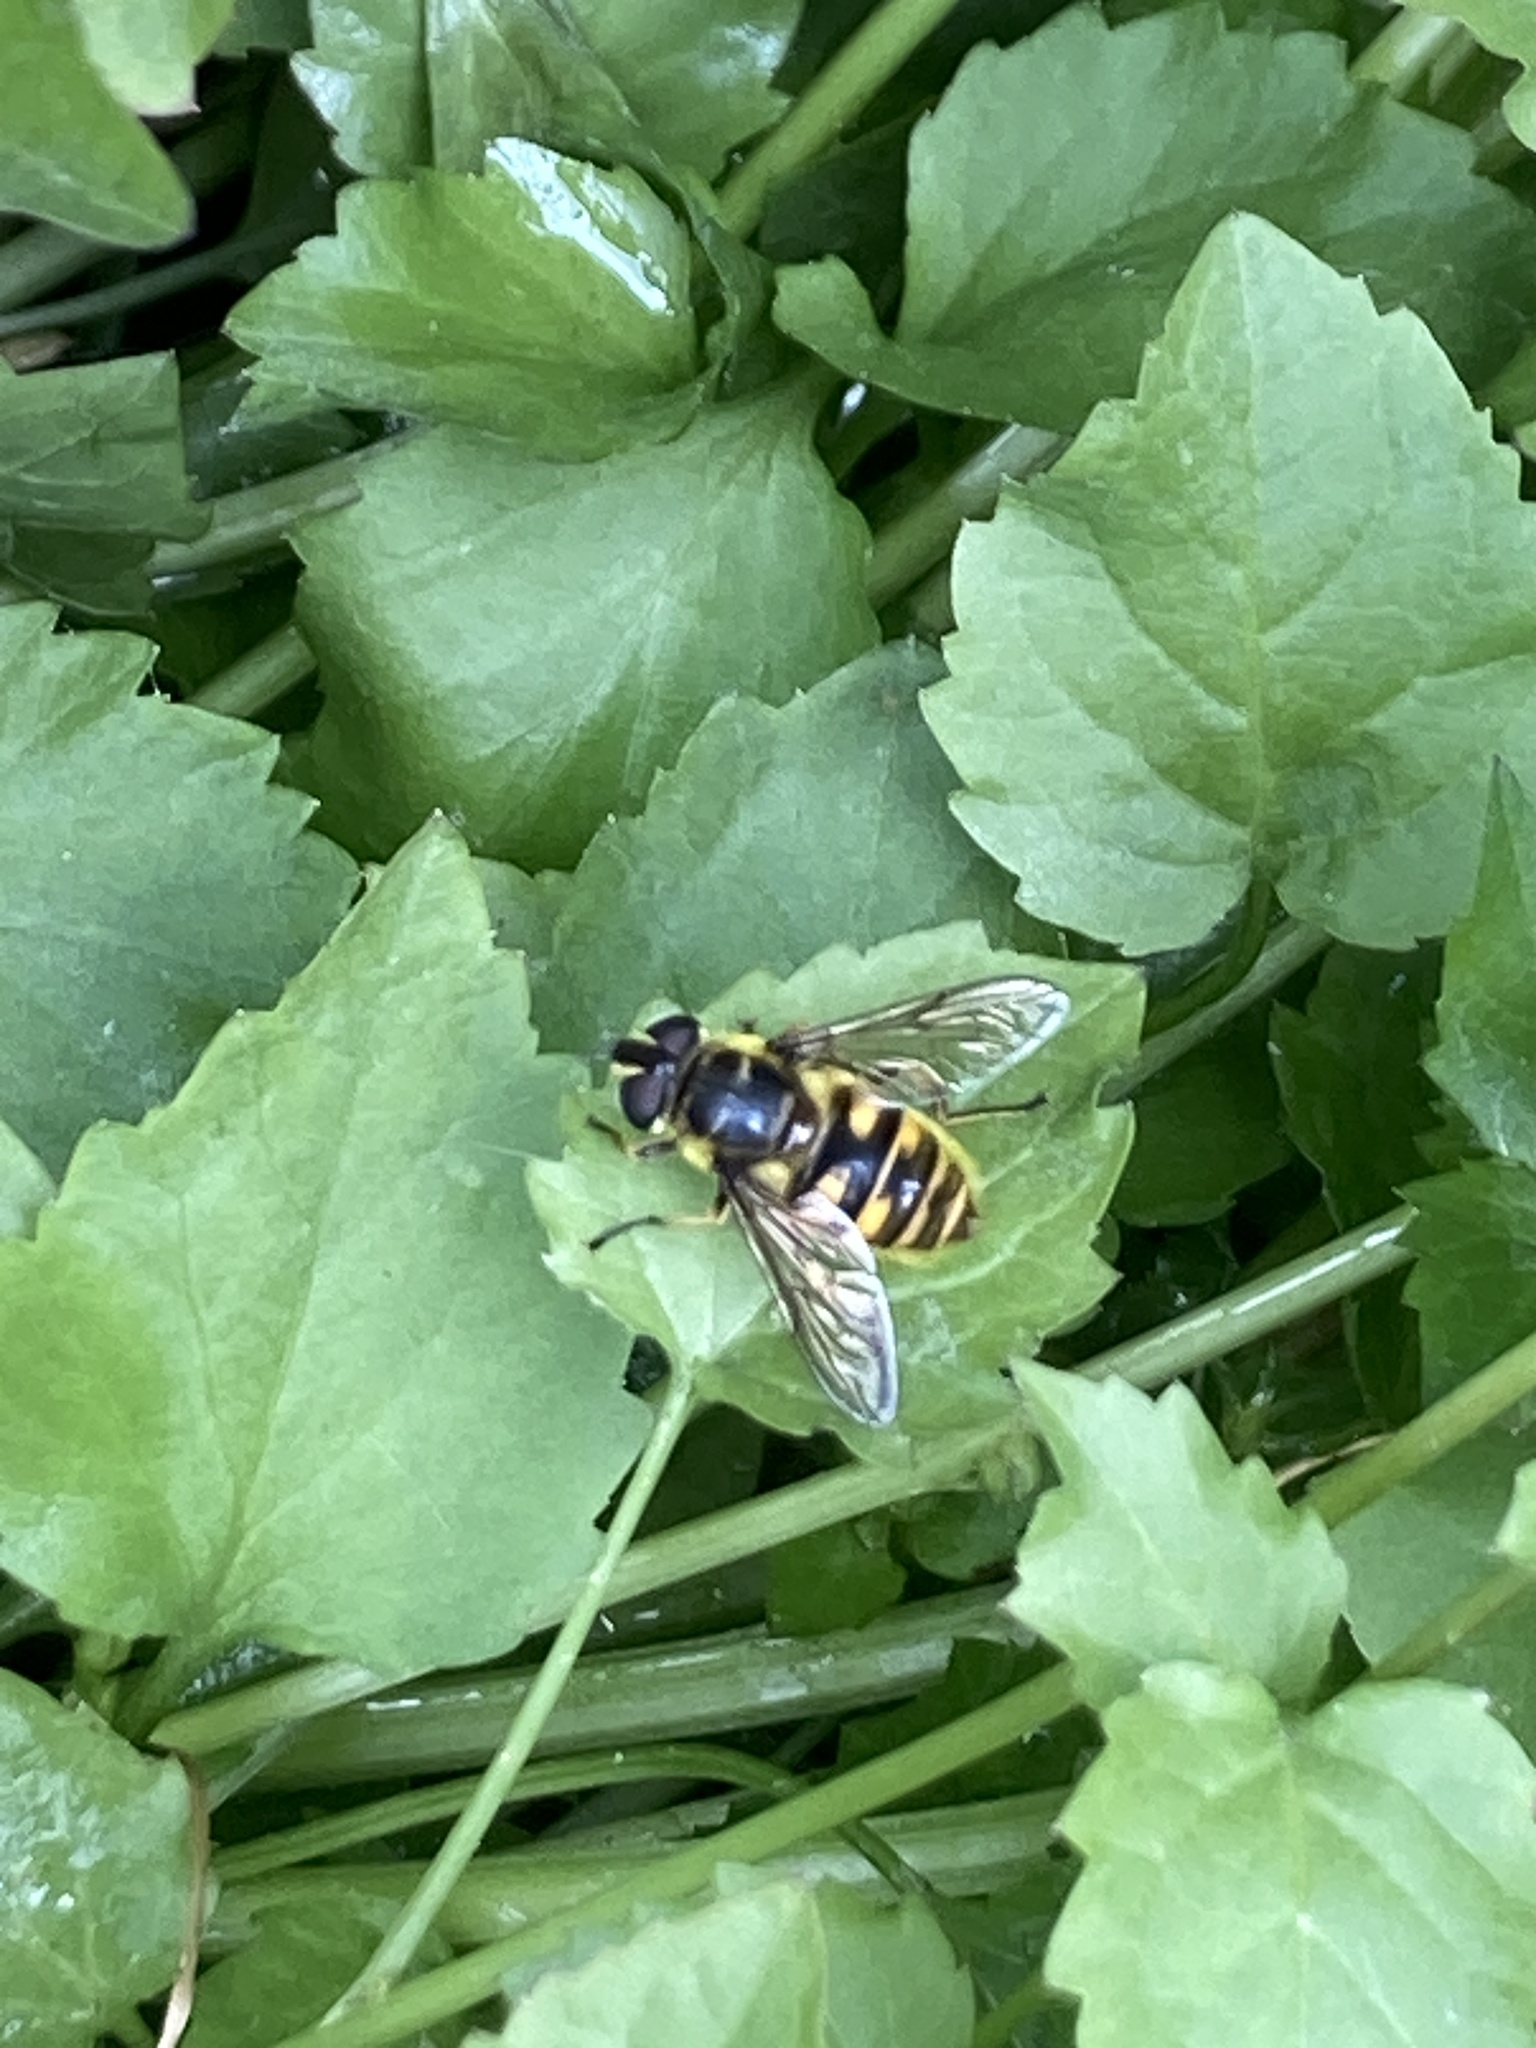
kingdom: Animalia
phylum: Arthropoda
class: Insecta
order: Diptera
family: Syrphidae
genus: Myathropa
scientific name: Myathropa florea
